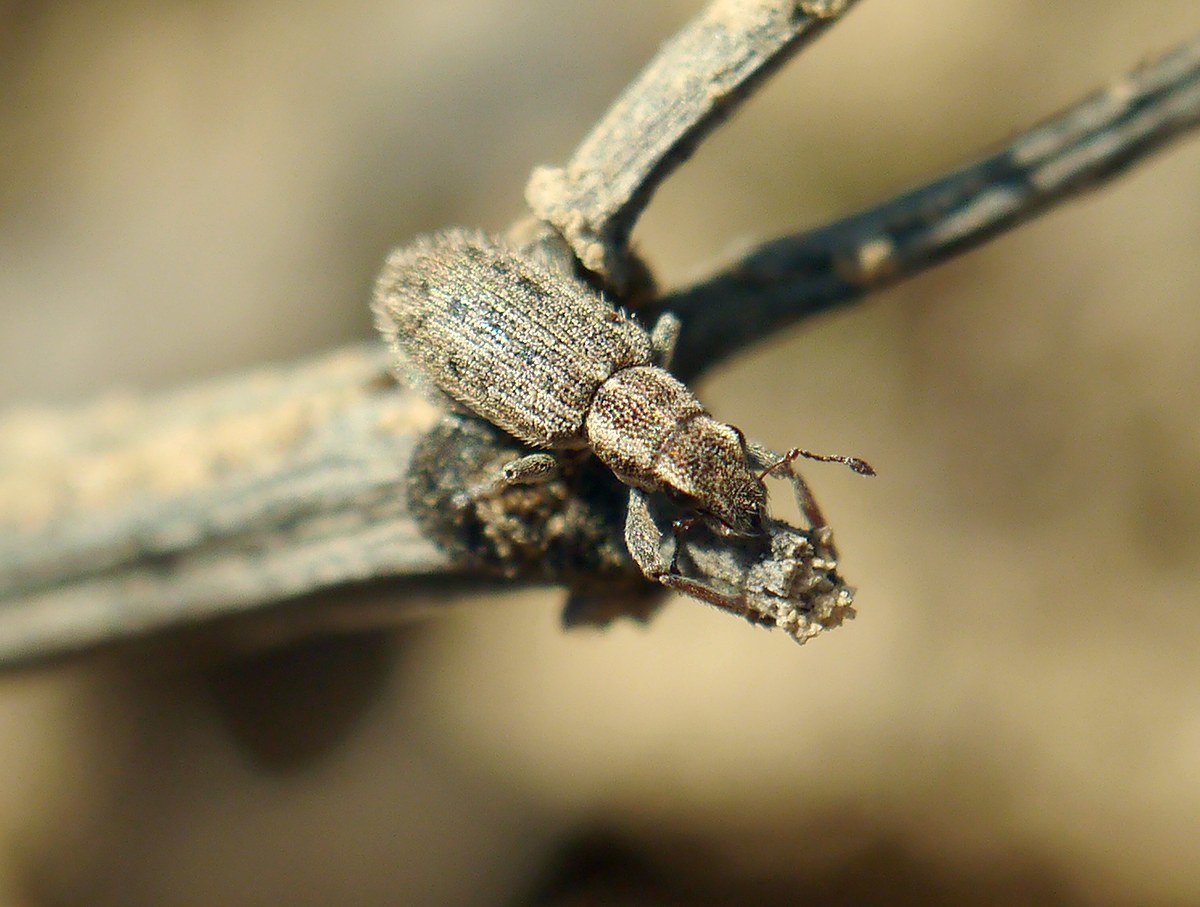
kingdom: Animalia
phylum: Arthropoda
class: Insecta
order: Coleoptera
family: Curculionidae
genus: Sitona
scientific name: Sitona macularius
